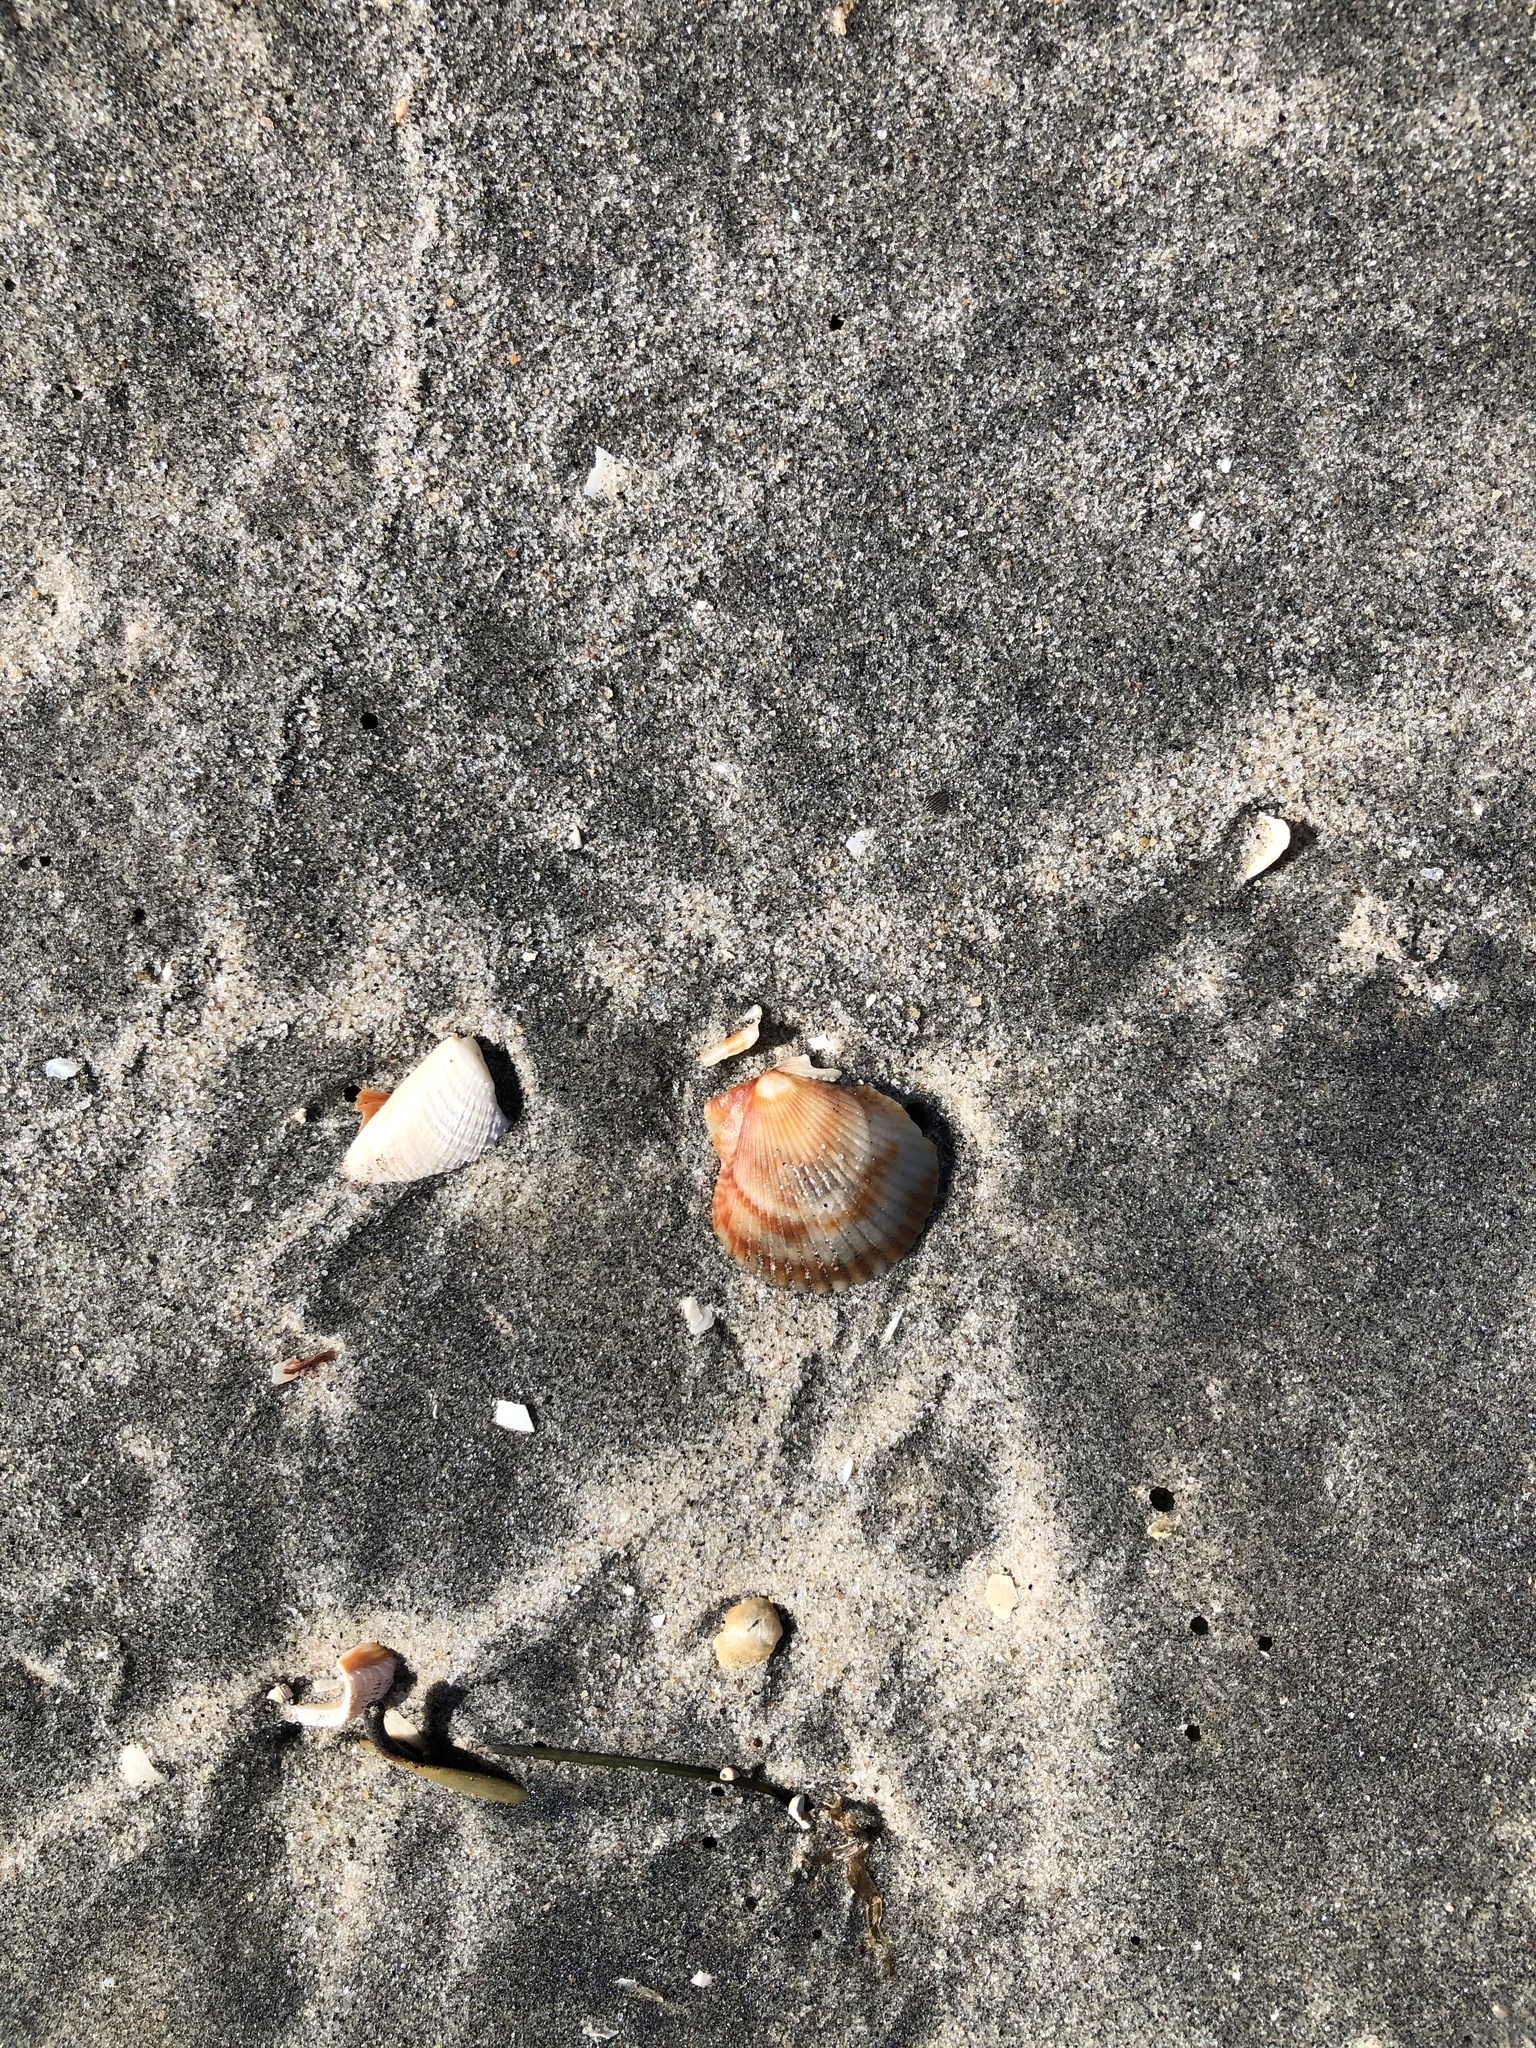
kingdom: Animalia
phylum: Mollusca
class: Bivalvia
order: Pectinida
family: Pectinidae
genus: Argopecten
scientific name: Argopecten ventricosus
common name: Catarina scallop
